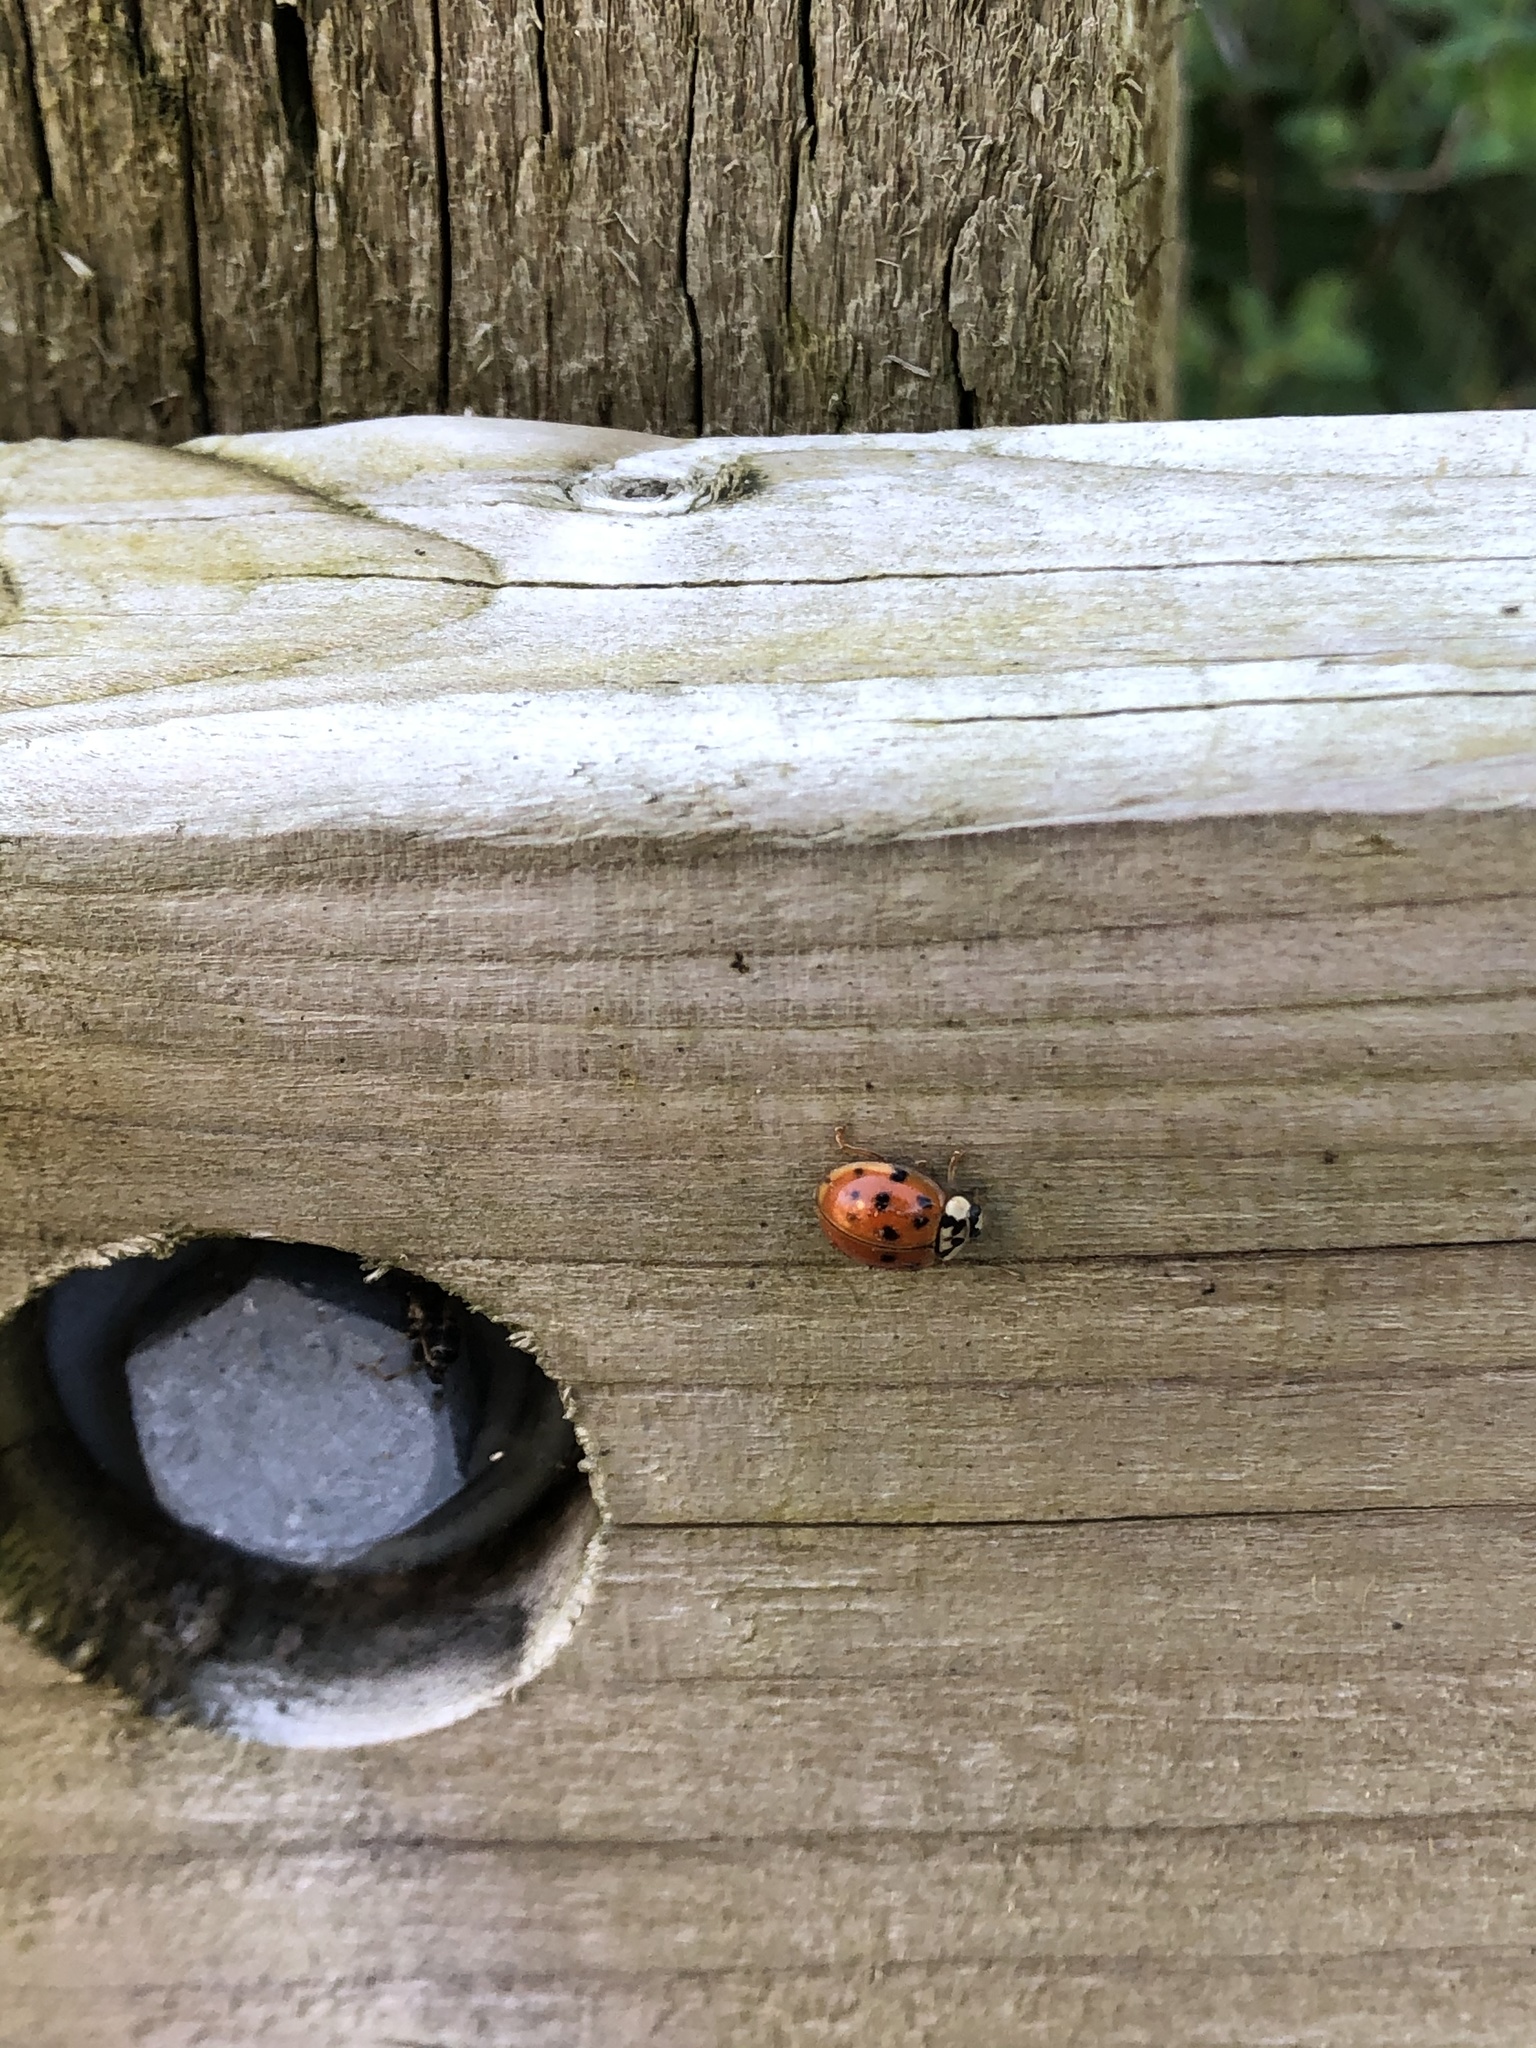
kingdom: Animalia
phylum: Arthropoda
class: Insecta
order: Coleoptera
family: Coccinellidae
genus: Harmonia
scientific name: Harmonia axyridis
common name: Harlequin ladybird
